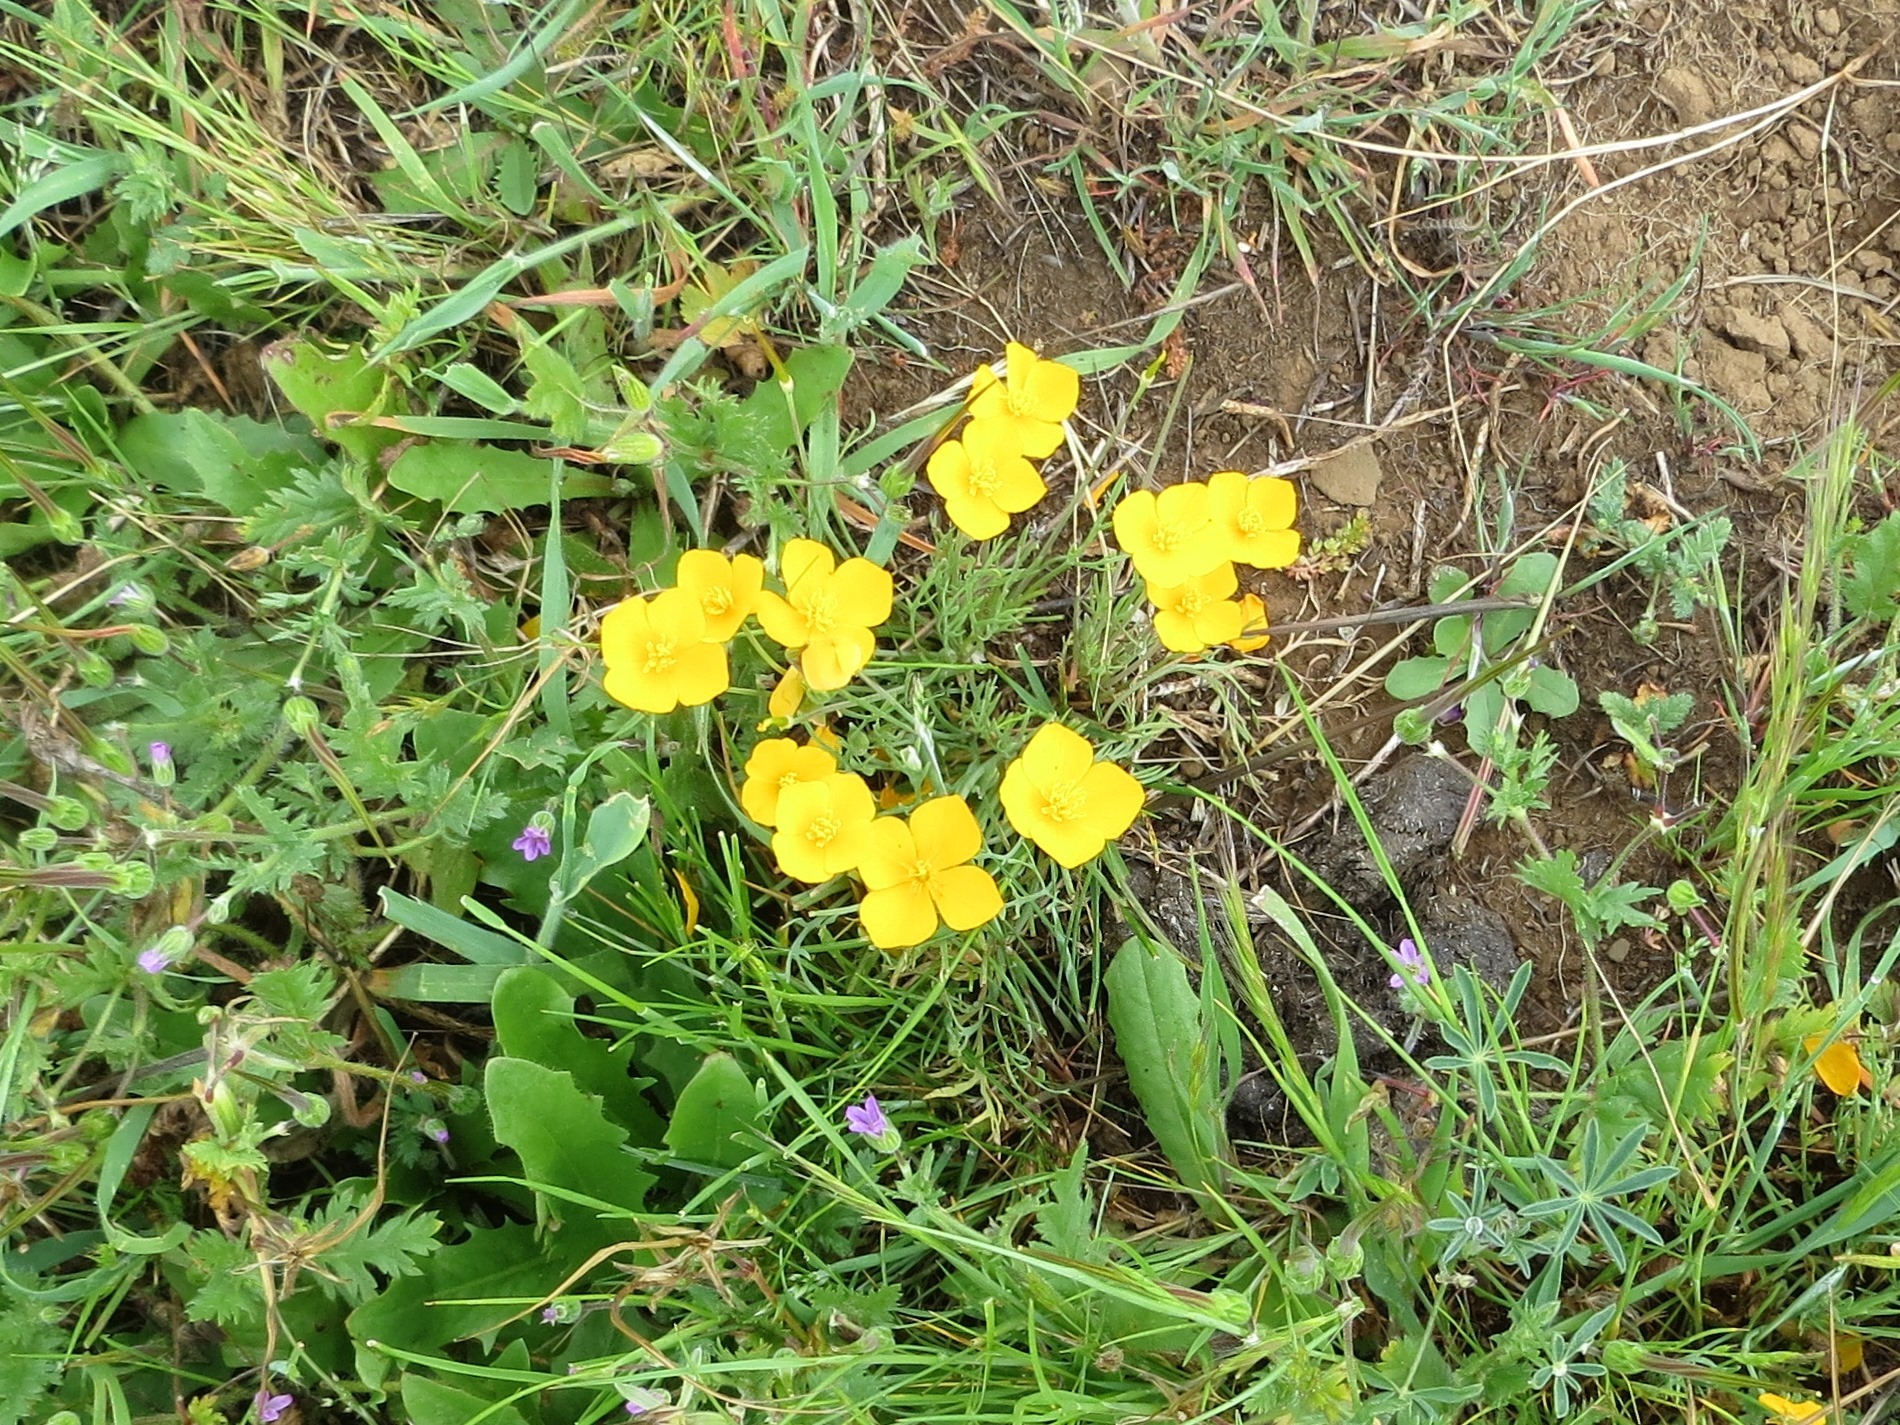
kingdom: Plantae
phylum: Tracheophyta
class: Magnoliopsida
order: Ranunculales
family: Papaveraceae
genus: Eschscholzia
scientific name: Eschscholzia lobbii
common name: Frying-pans
